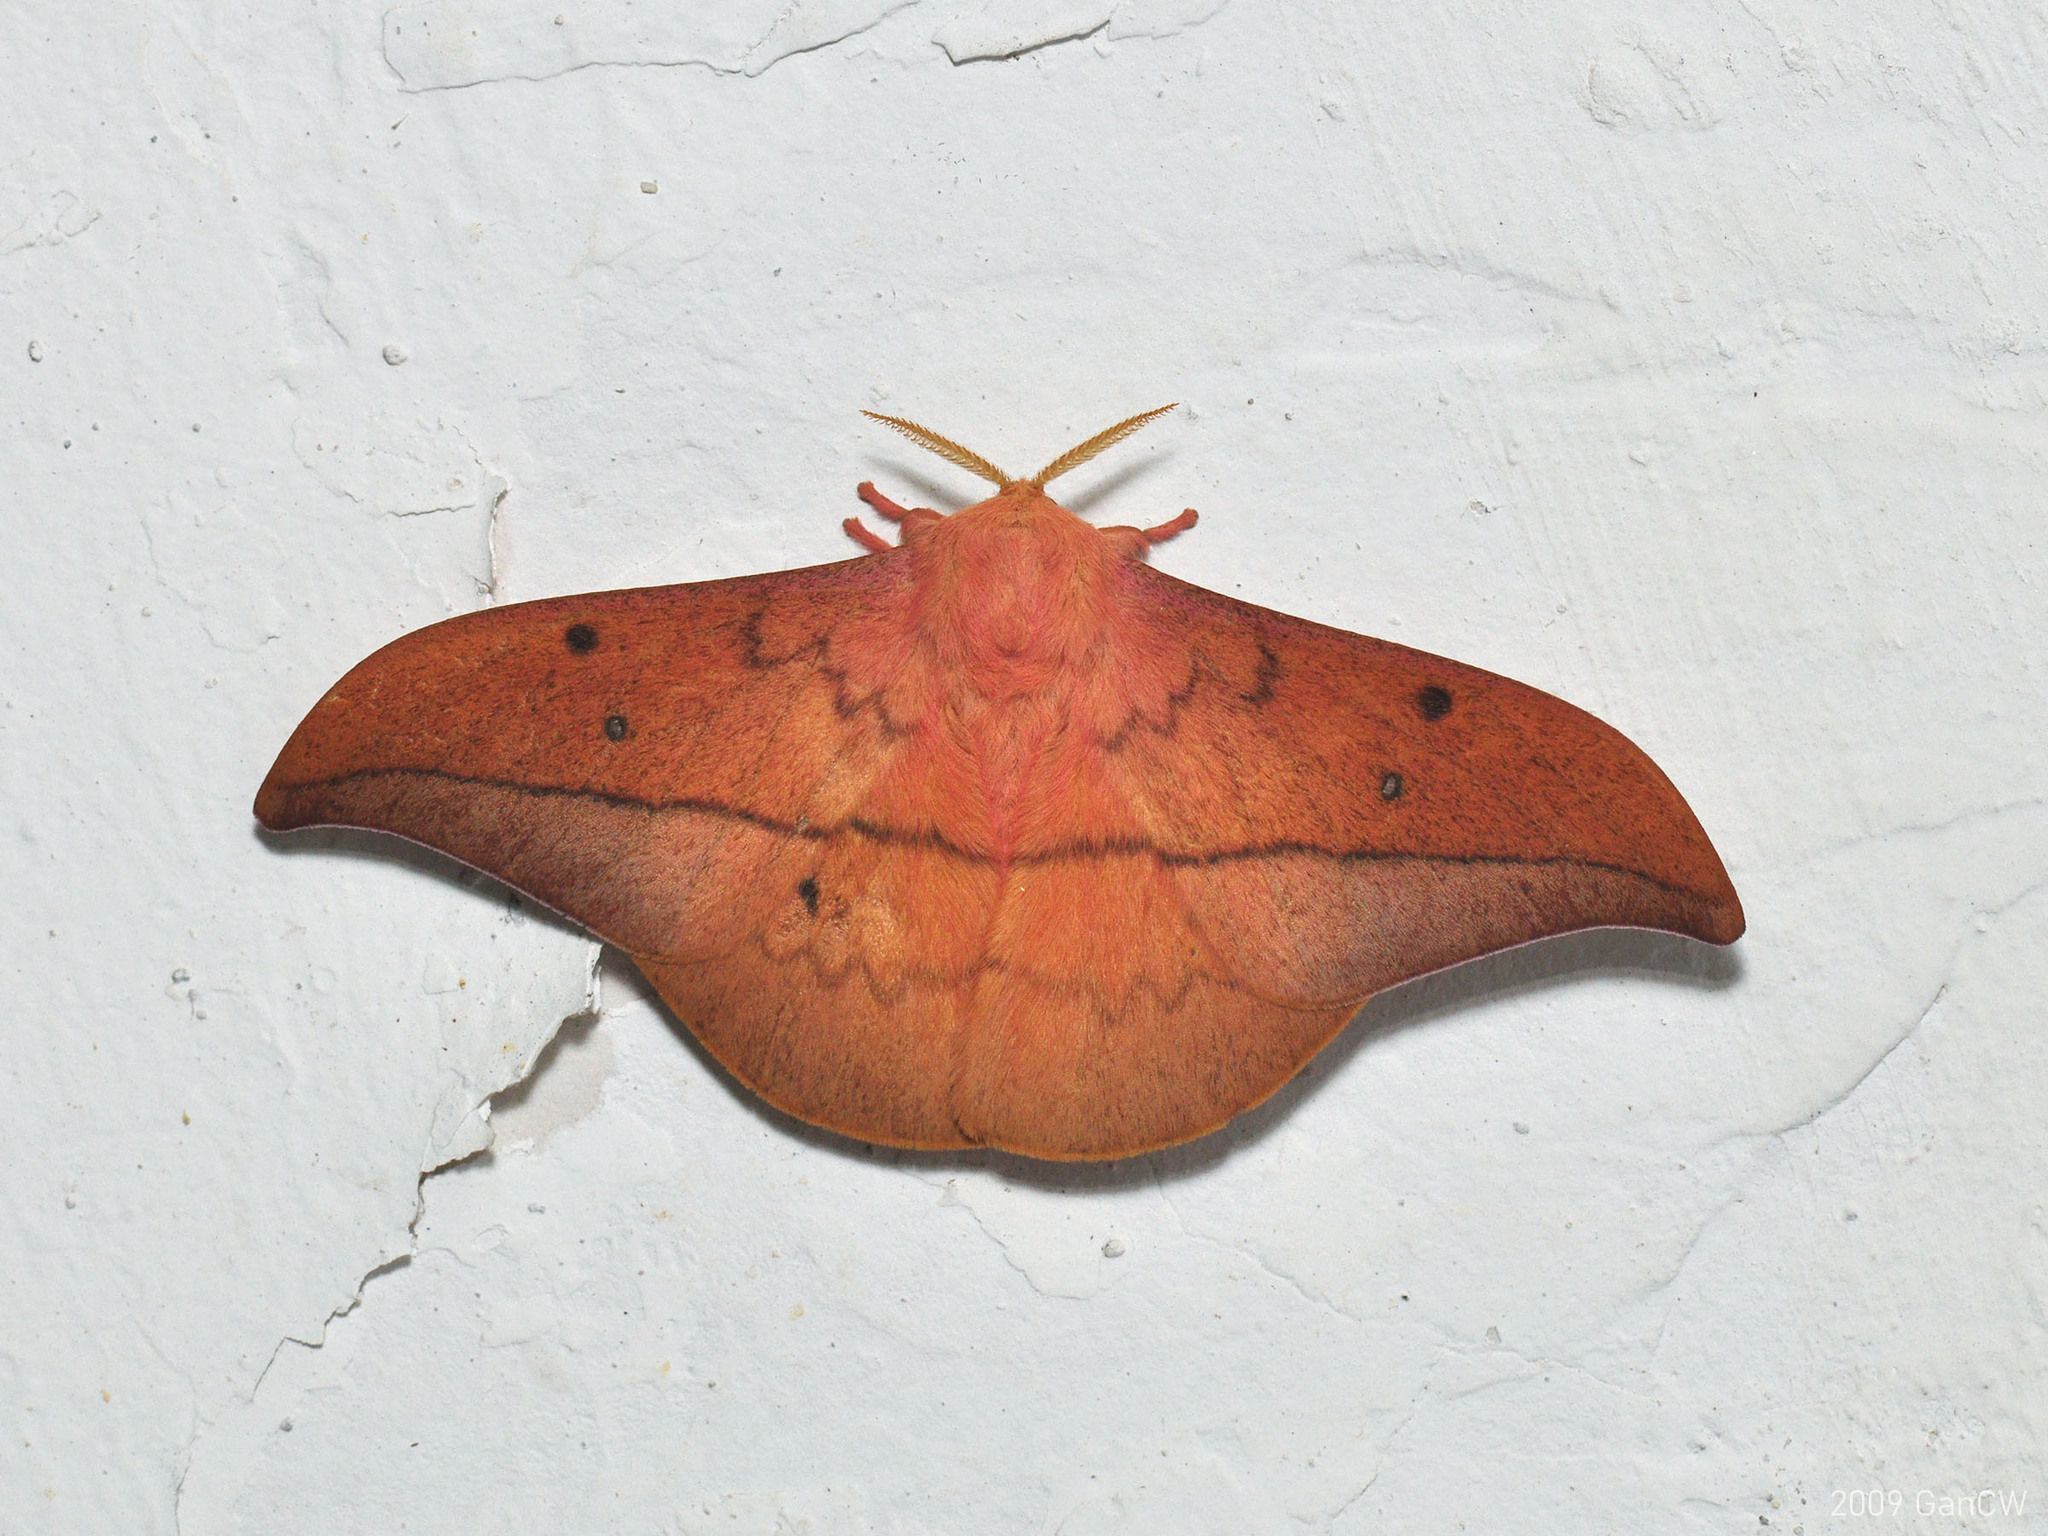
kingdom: Animalia
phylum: Arthropoda
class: Insecta
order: Lepidoptera
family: Saturniidae
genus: Cricula
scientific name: Cricula trifenestrata
